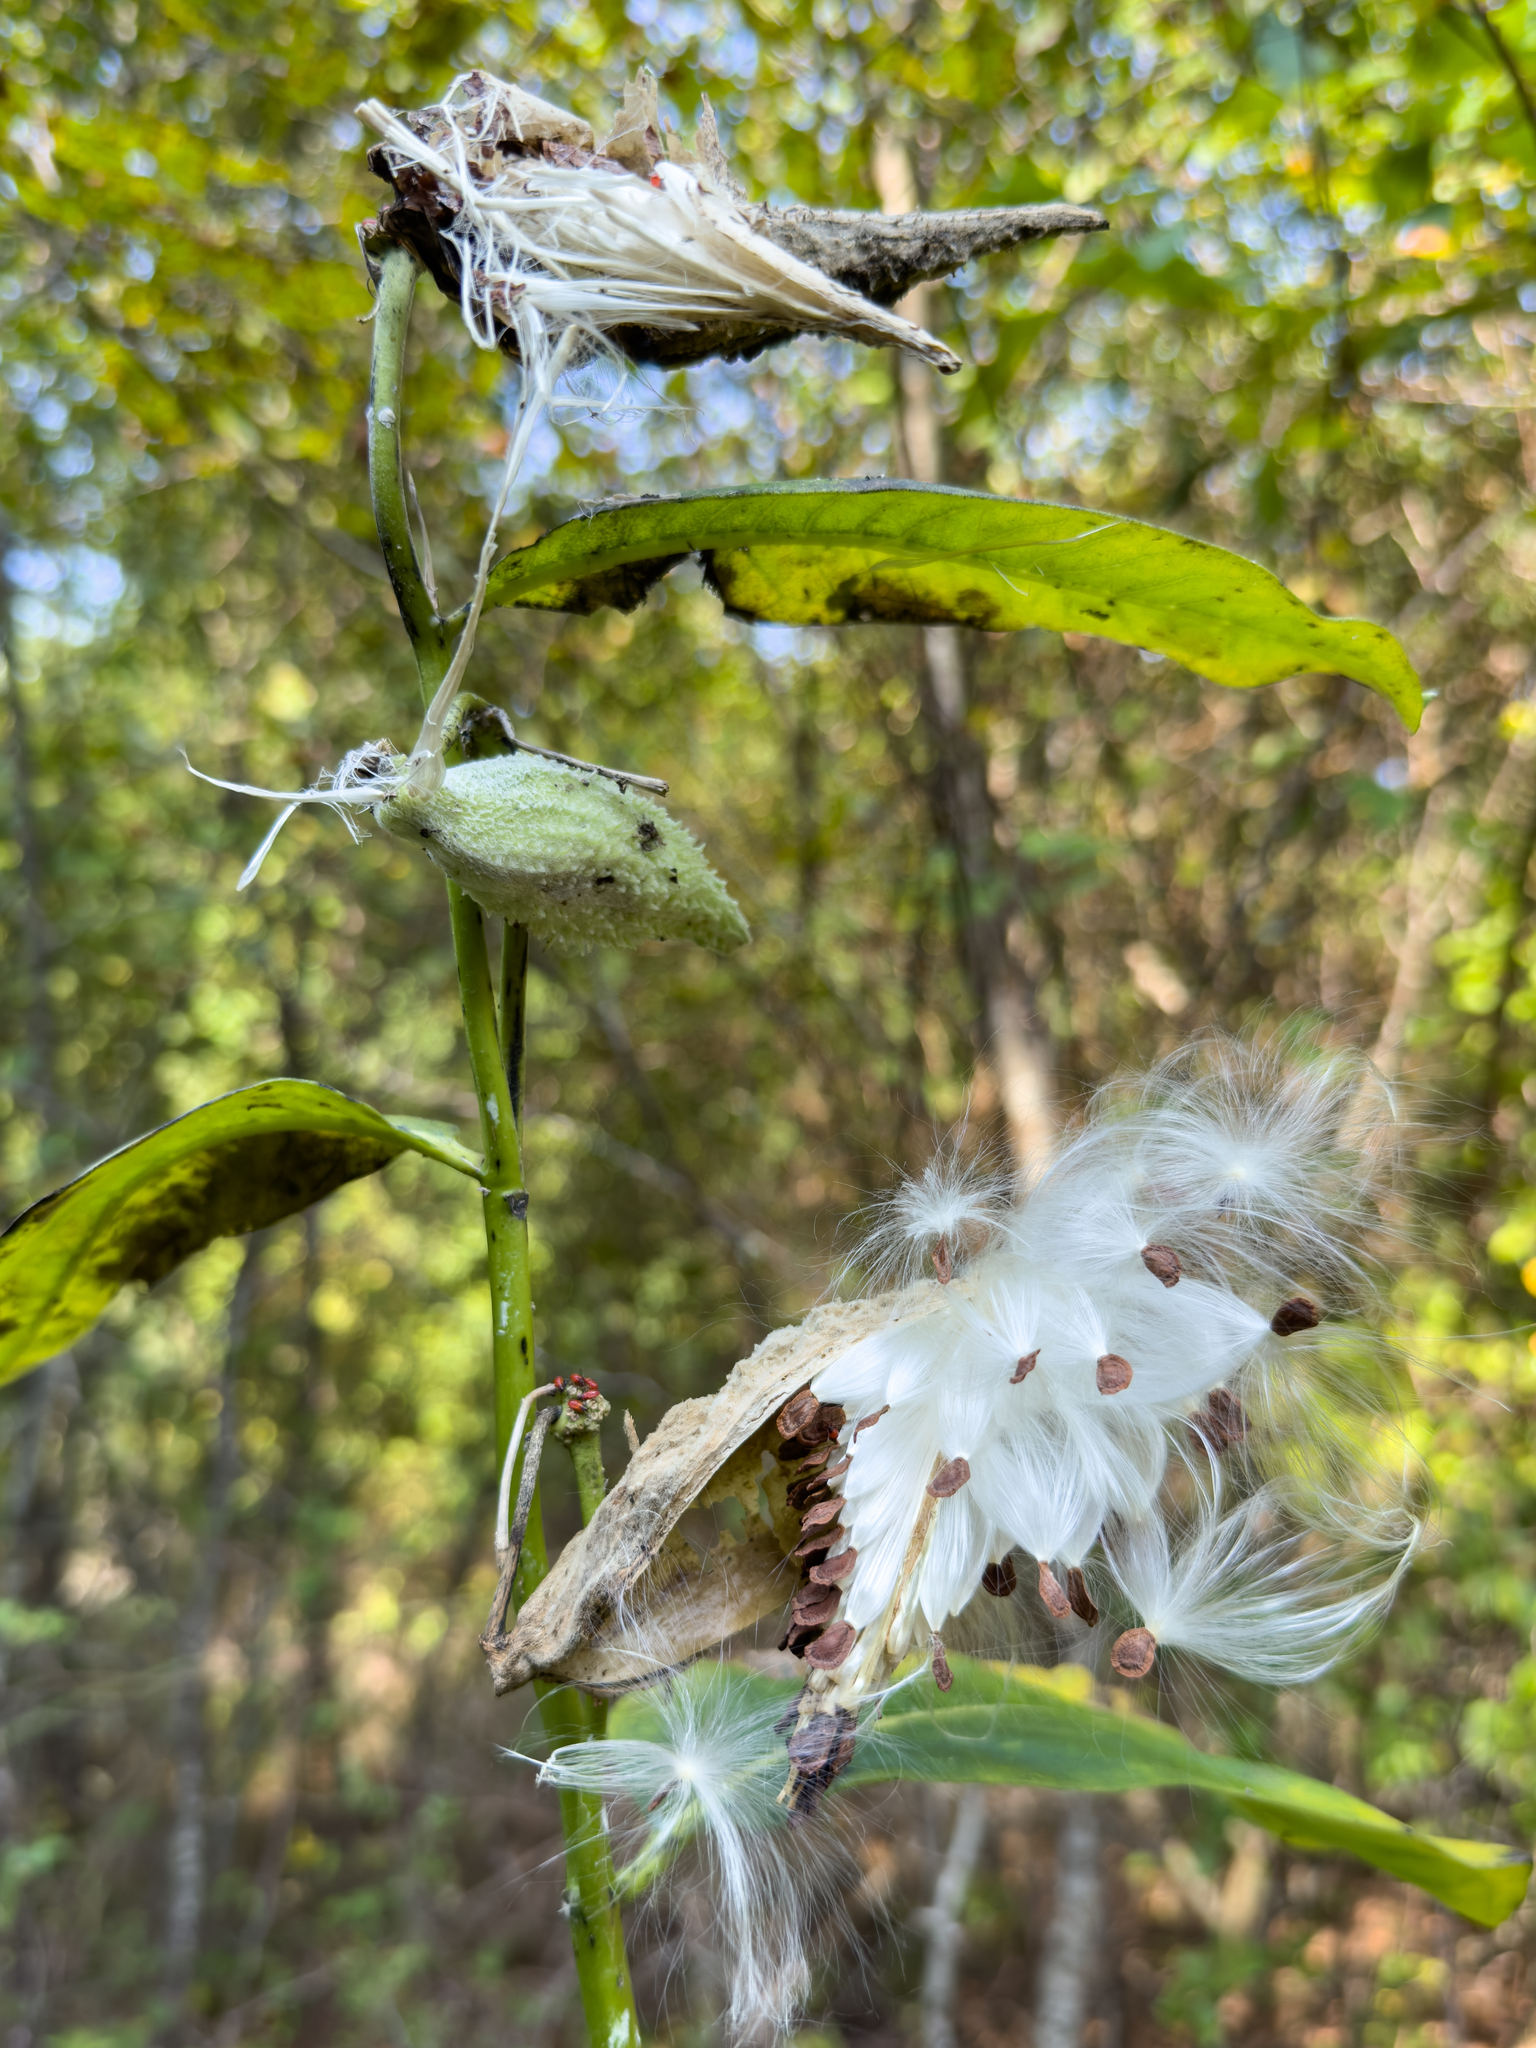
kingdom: Plantae
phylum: Tracheophyta
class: Magnoliopsida
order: Gentianales
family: Apocynaceae
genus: Asclepias
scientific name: Asclepias syriaca
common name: Common milkweed
